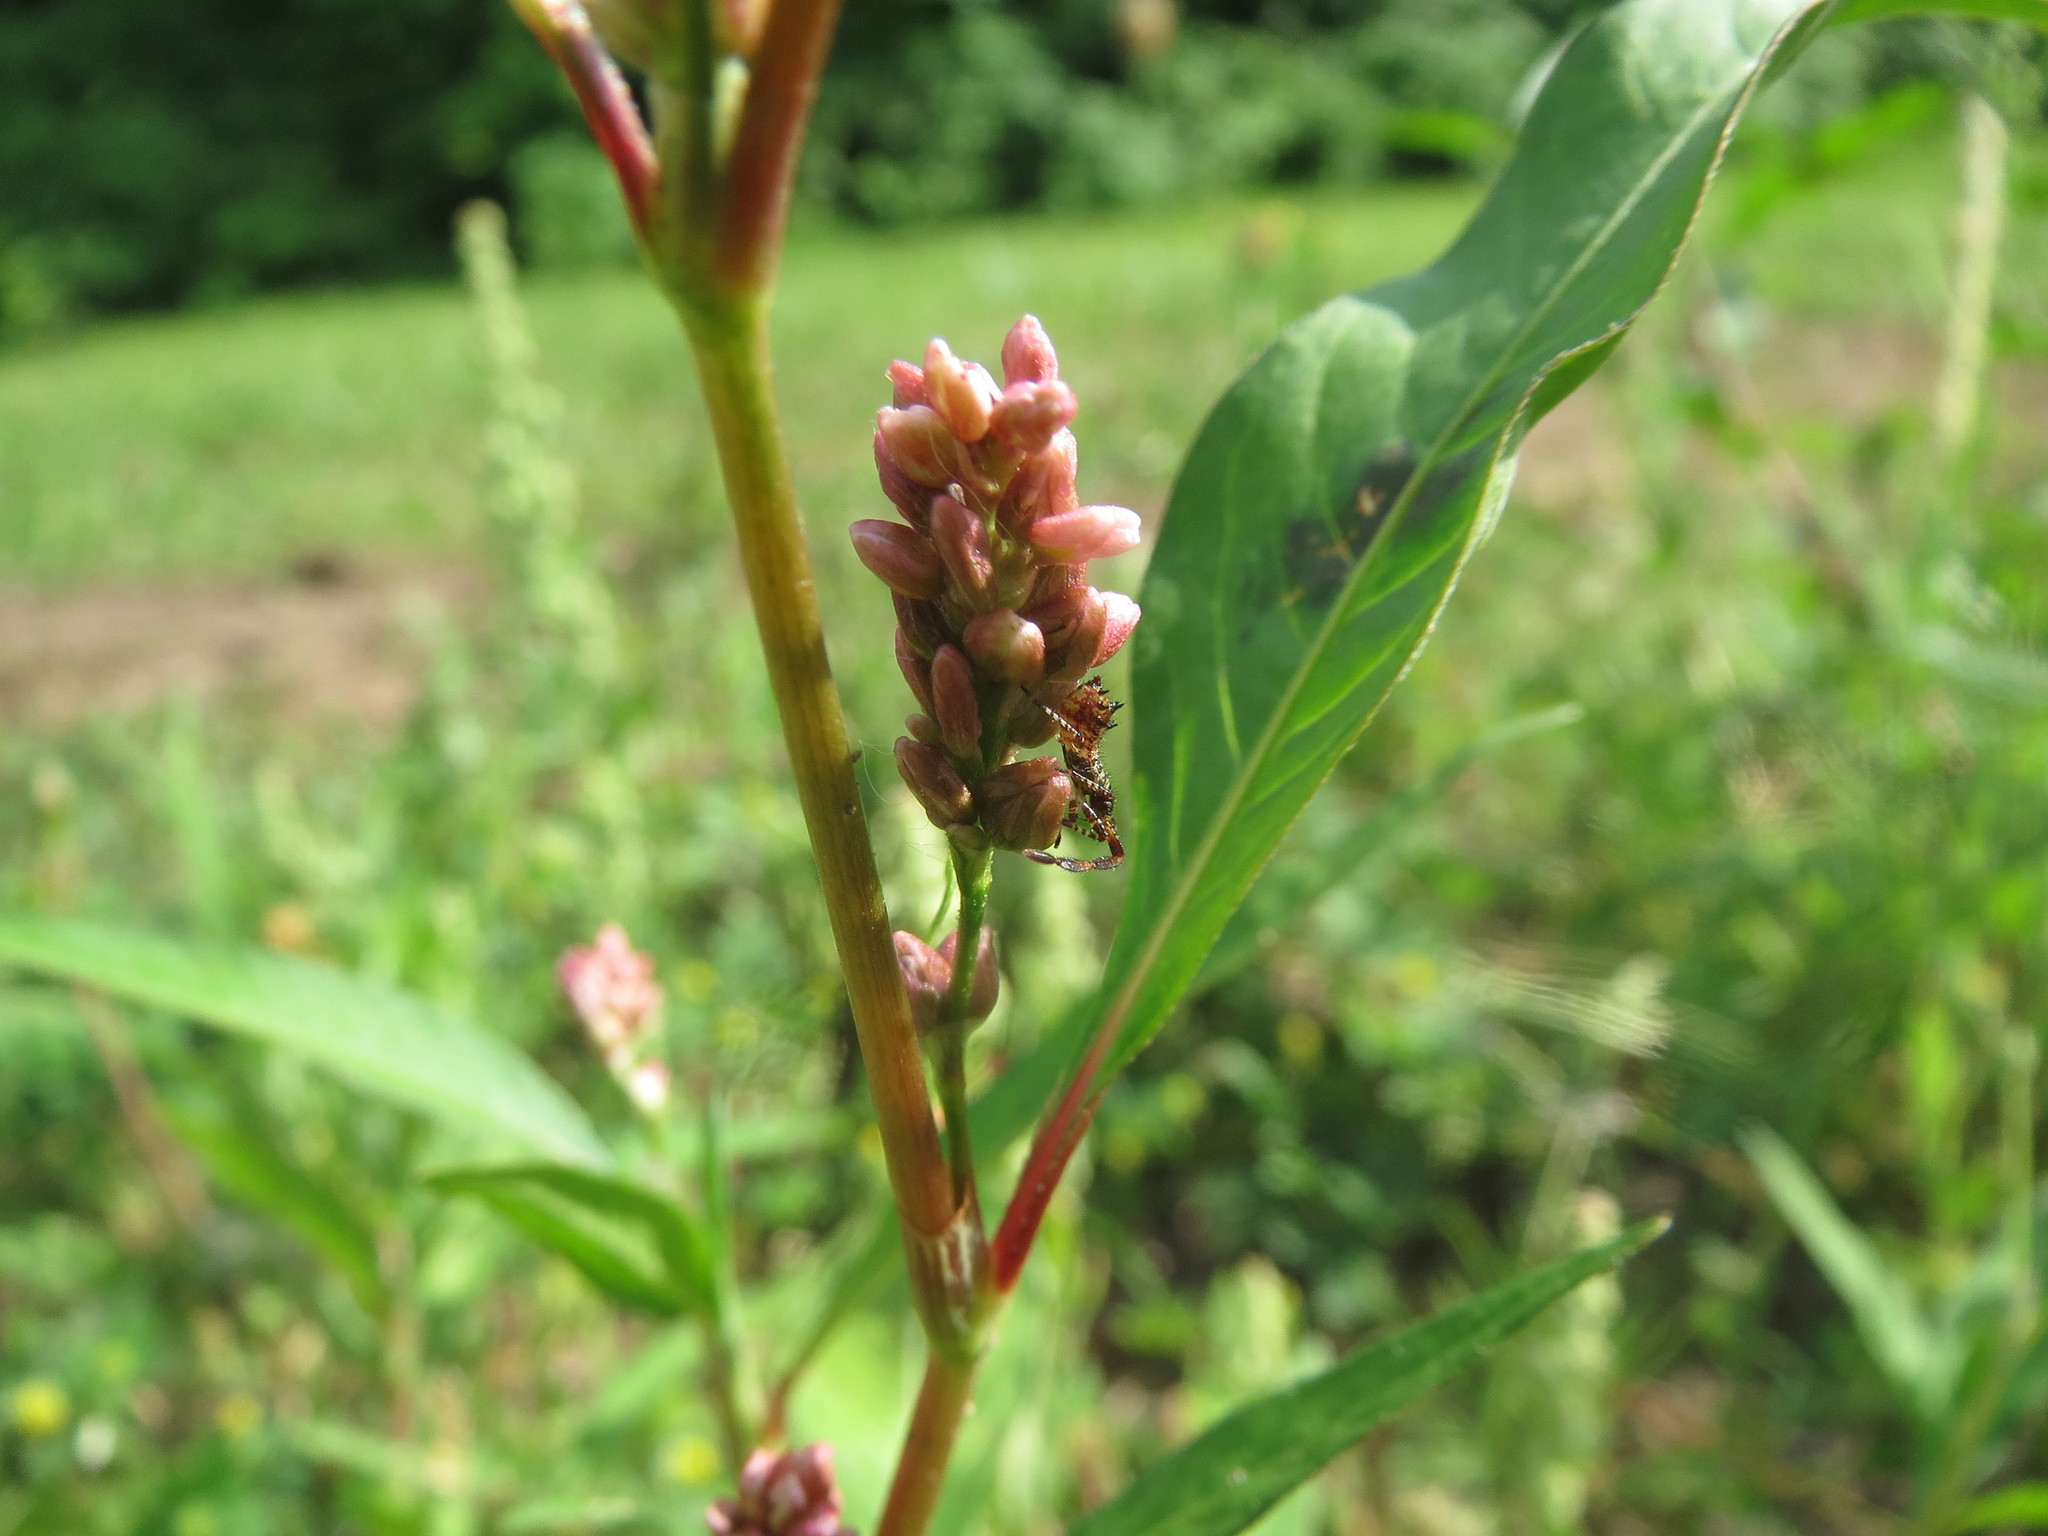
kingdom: Plantae
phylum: Tracheophyta
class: Magnoliopsida
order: Caryophyllales
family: Polygonaceae
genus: Persicaria
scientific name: Persicaria lapathifolia
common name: Curlytop knotweed
